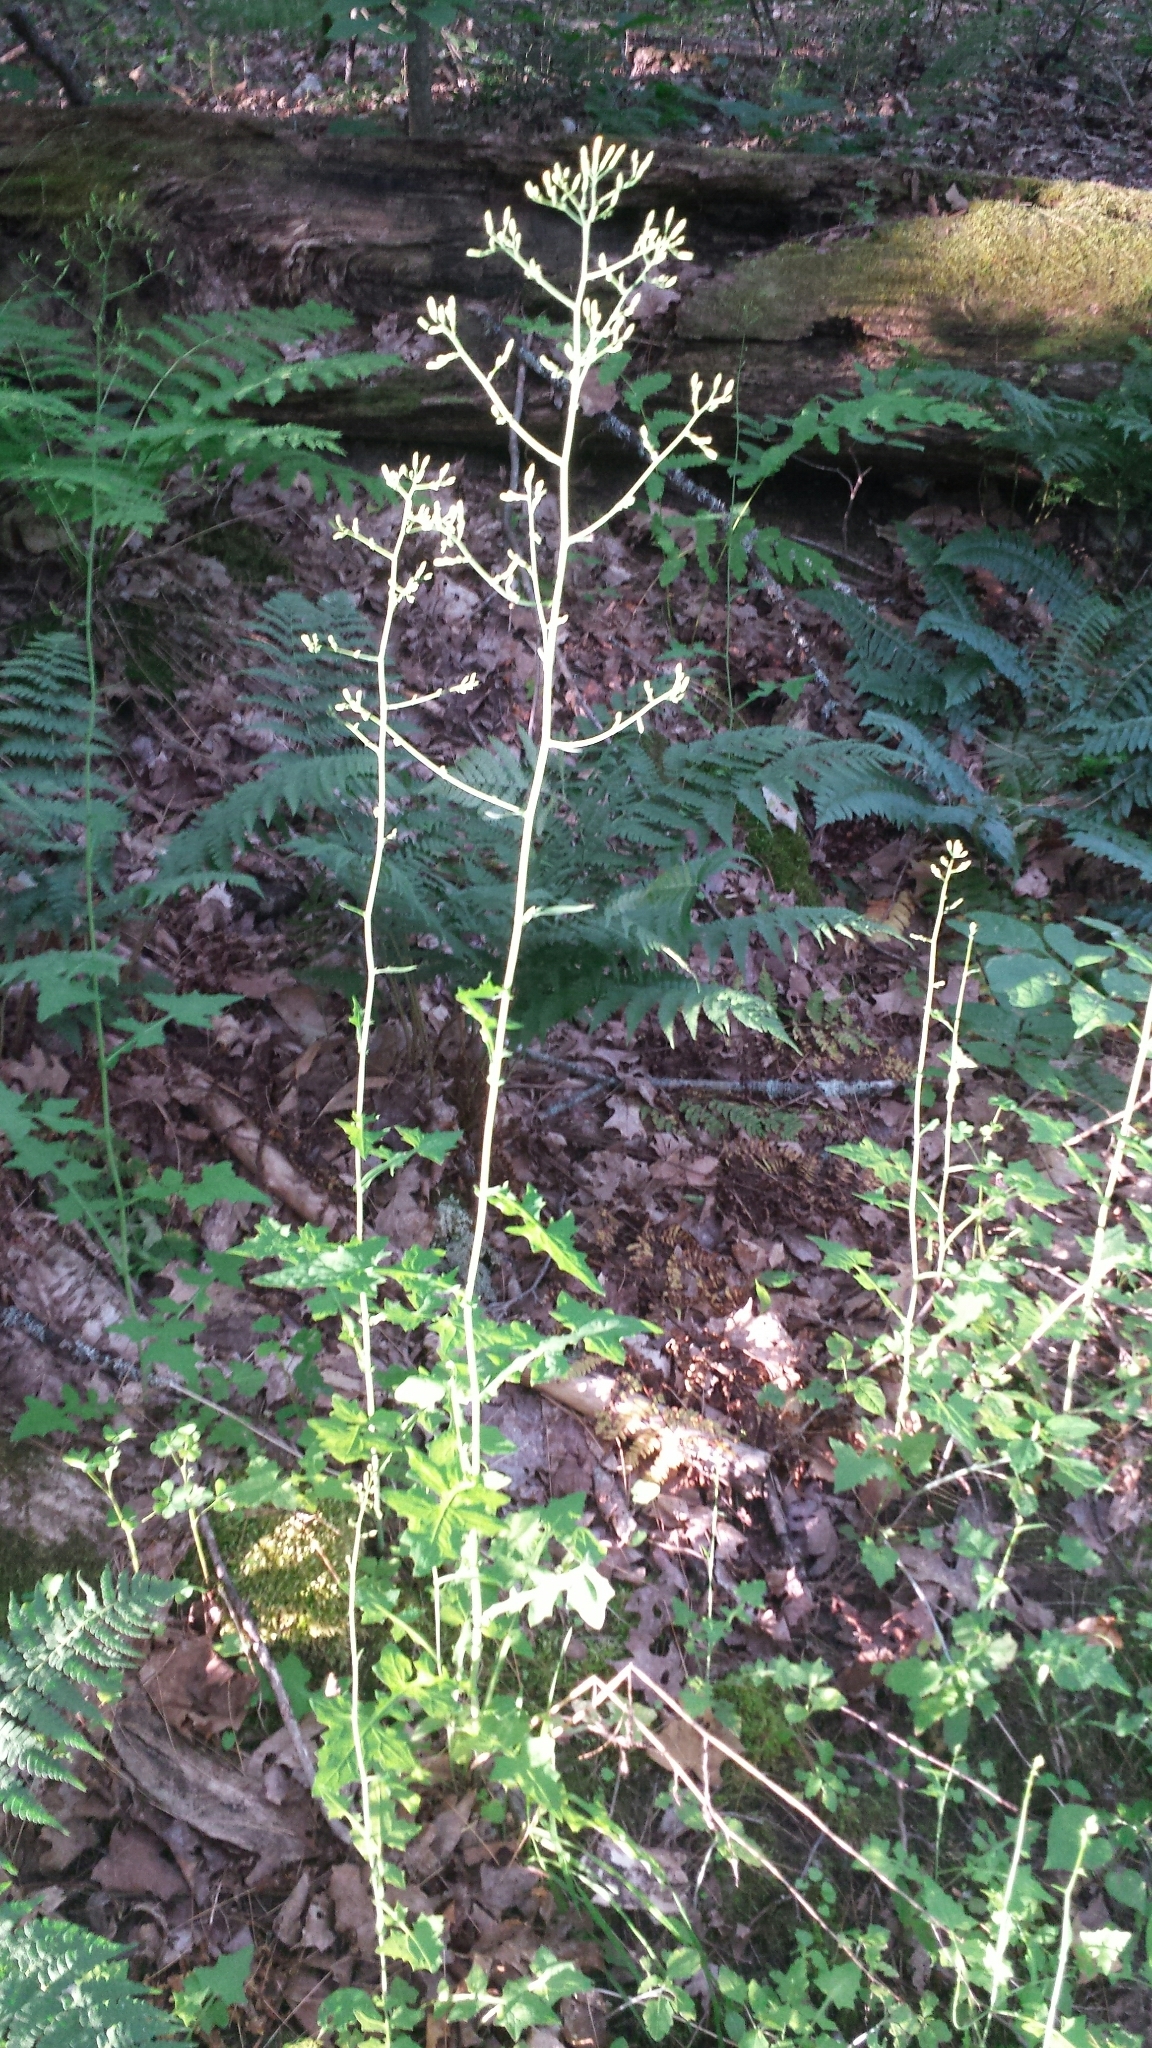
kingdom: Plantae
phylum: Tracheophyta
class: Magnoliopsida
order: Asterales
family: Asteraceae
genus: Mycelis
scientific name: Mycelis muralis
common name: Wall lettuce
